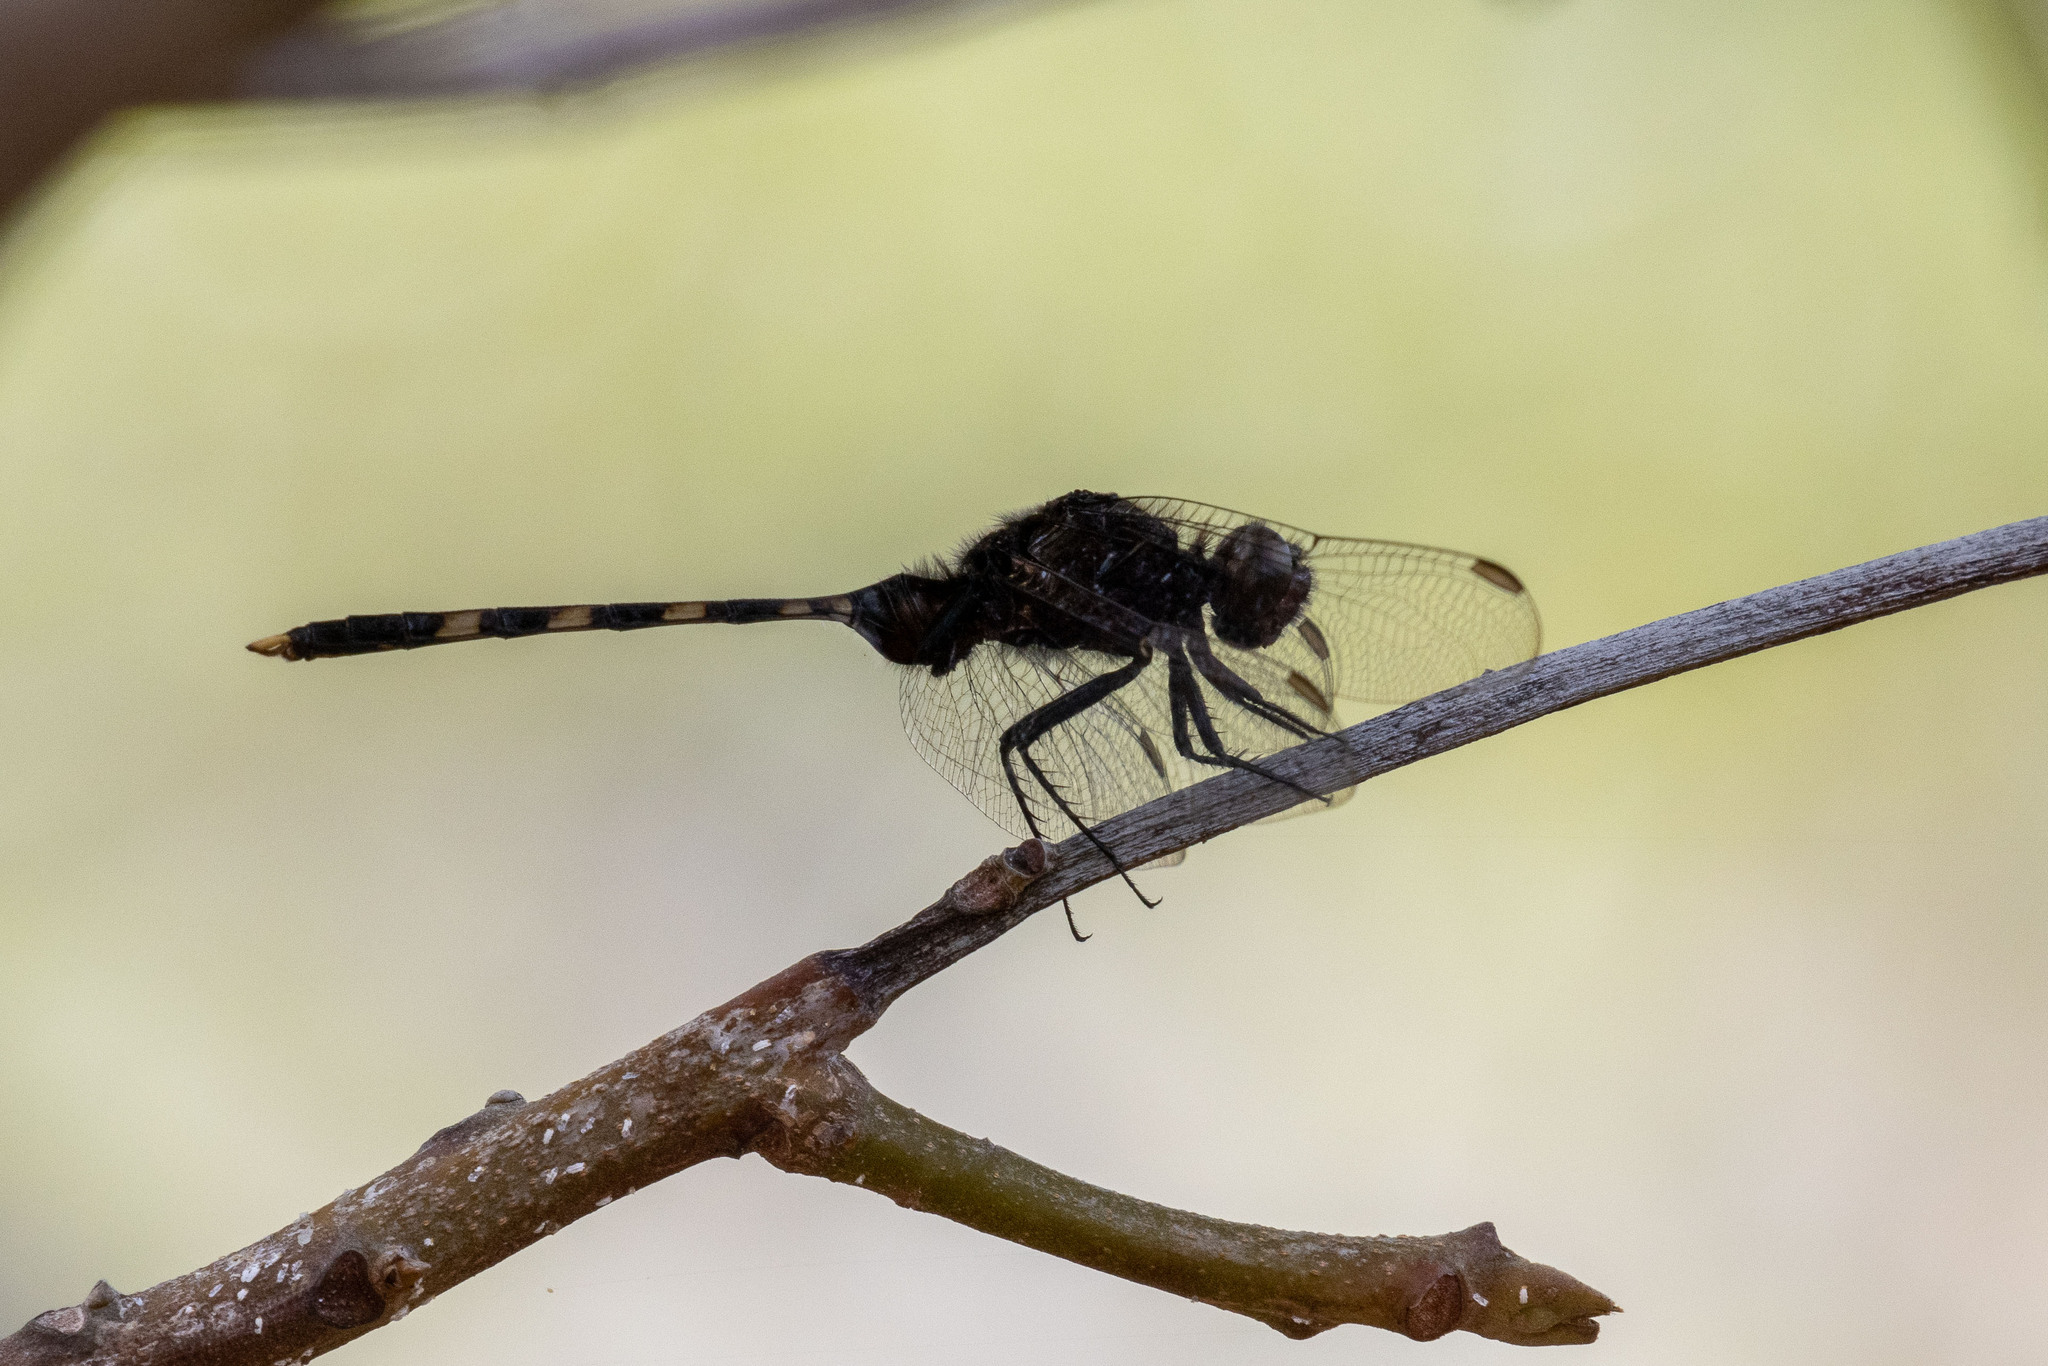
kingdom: Animalia
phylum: Arthropoda
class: Insecta
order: Odonata
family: Libellulidae
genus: Erythemis
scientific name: Erythemis plebeja
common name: Pin-tailed pondhawk
